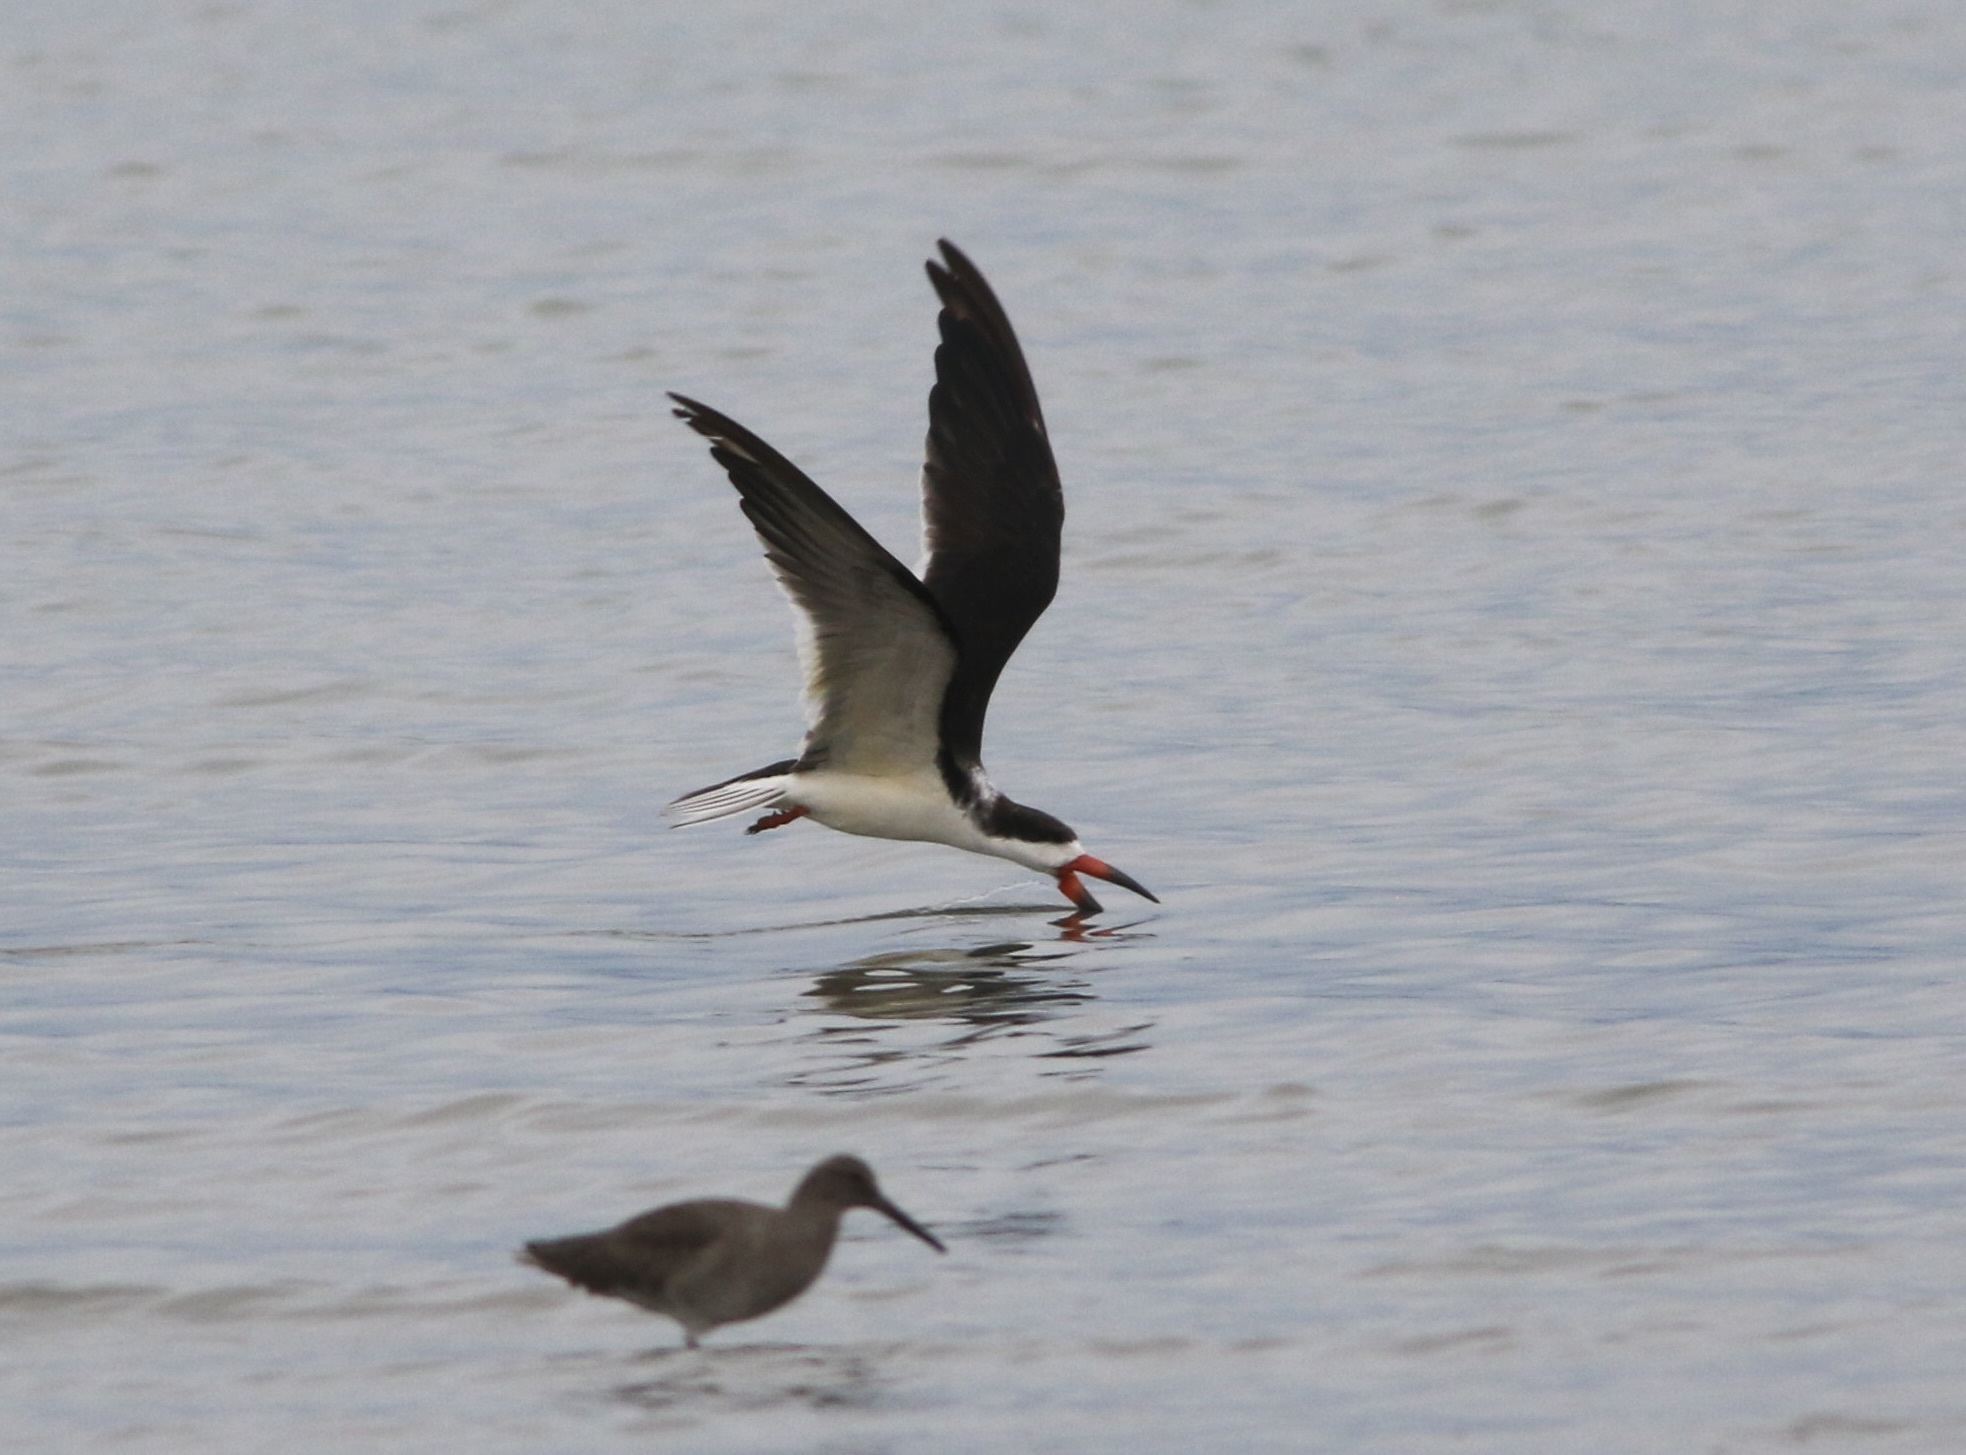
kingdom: Animalia
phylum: Chordata
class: Aves
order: Charadriiformes
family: Laridae
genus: Rynchops
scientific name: Rynchops niger
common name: Black skimmer
